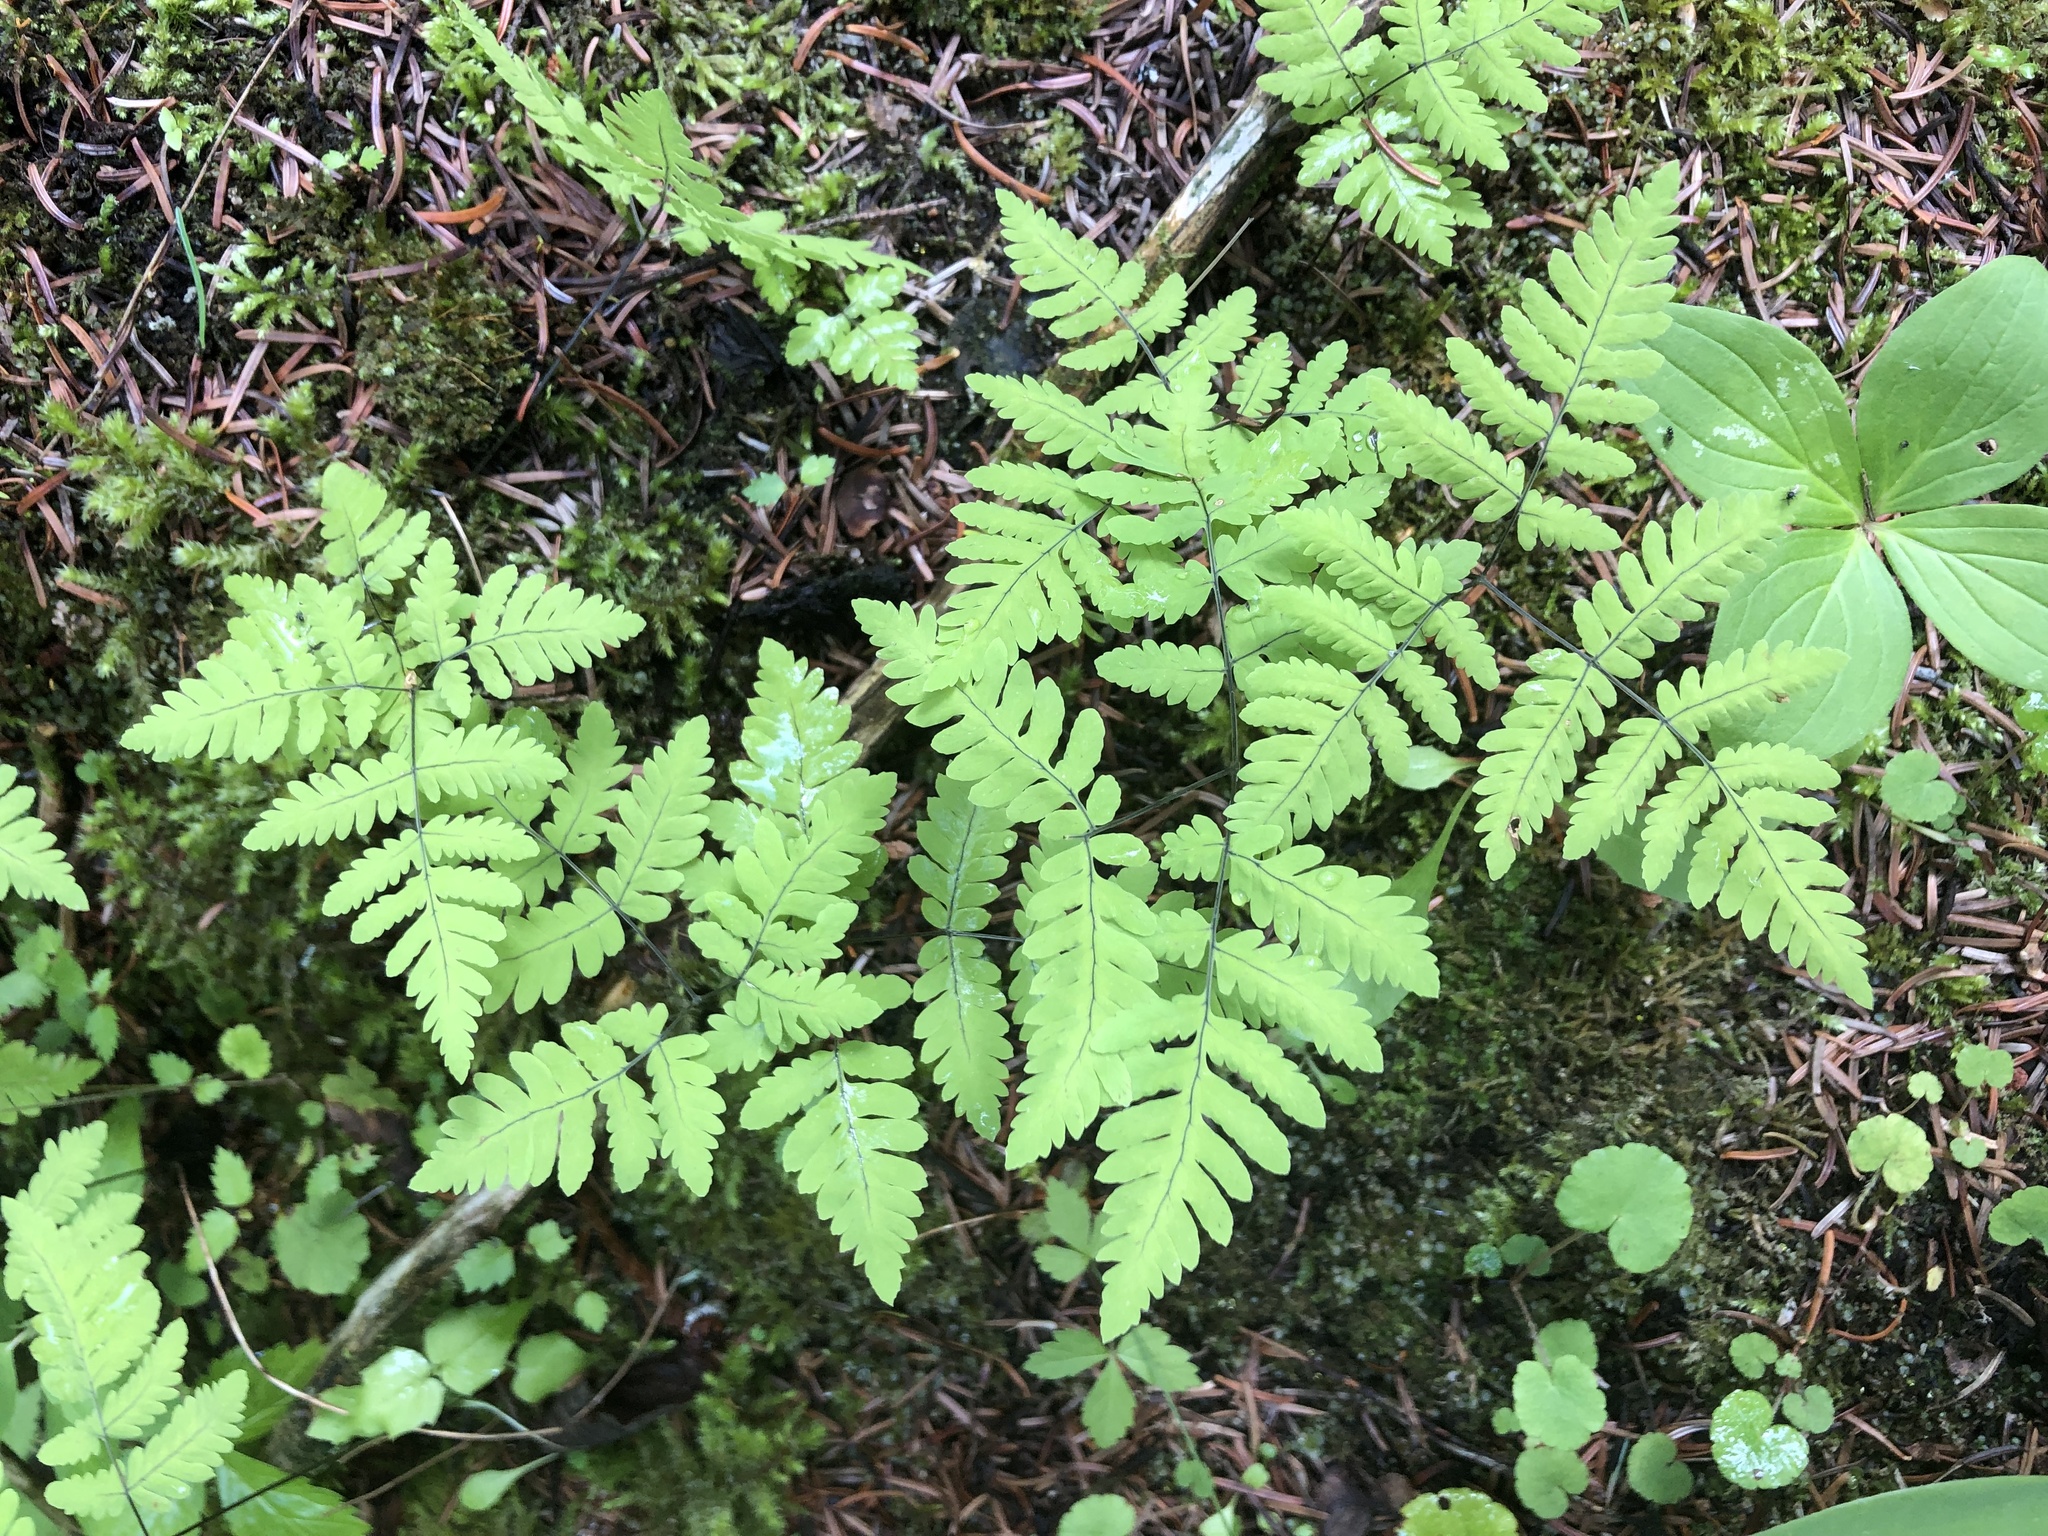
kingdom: Plantae
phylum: Tracheophyta
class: Polypodiopsida
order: Polypodiales
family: Cystopteridaceae
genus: Gymnocarpium
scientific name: Gymnocarpium dryopteris
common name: Oak fern
